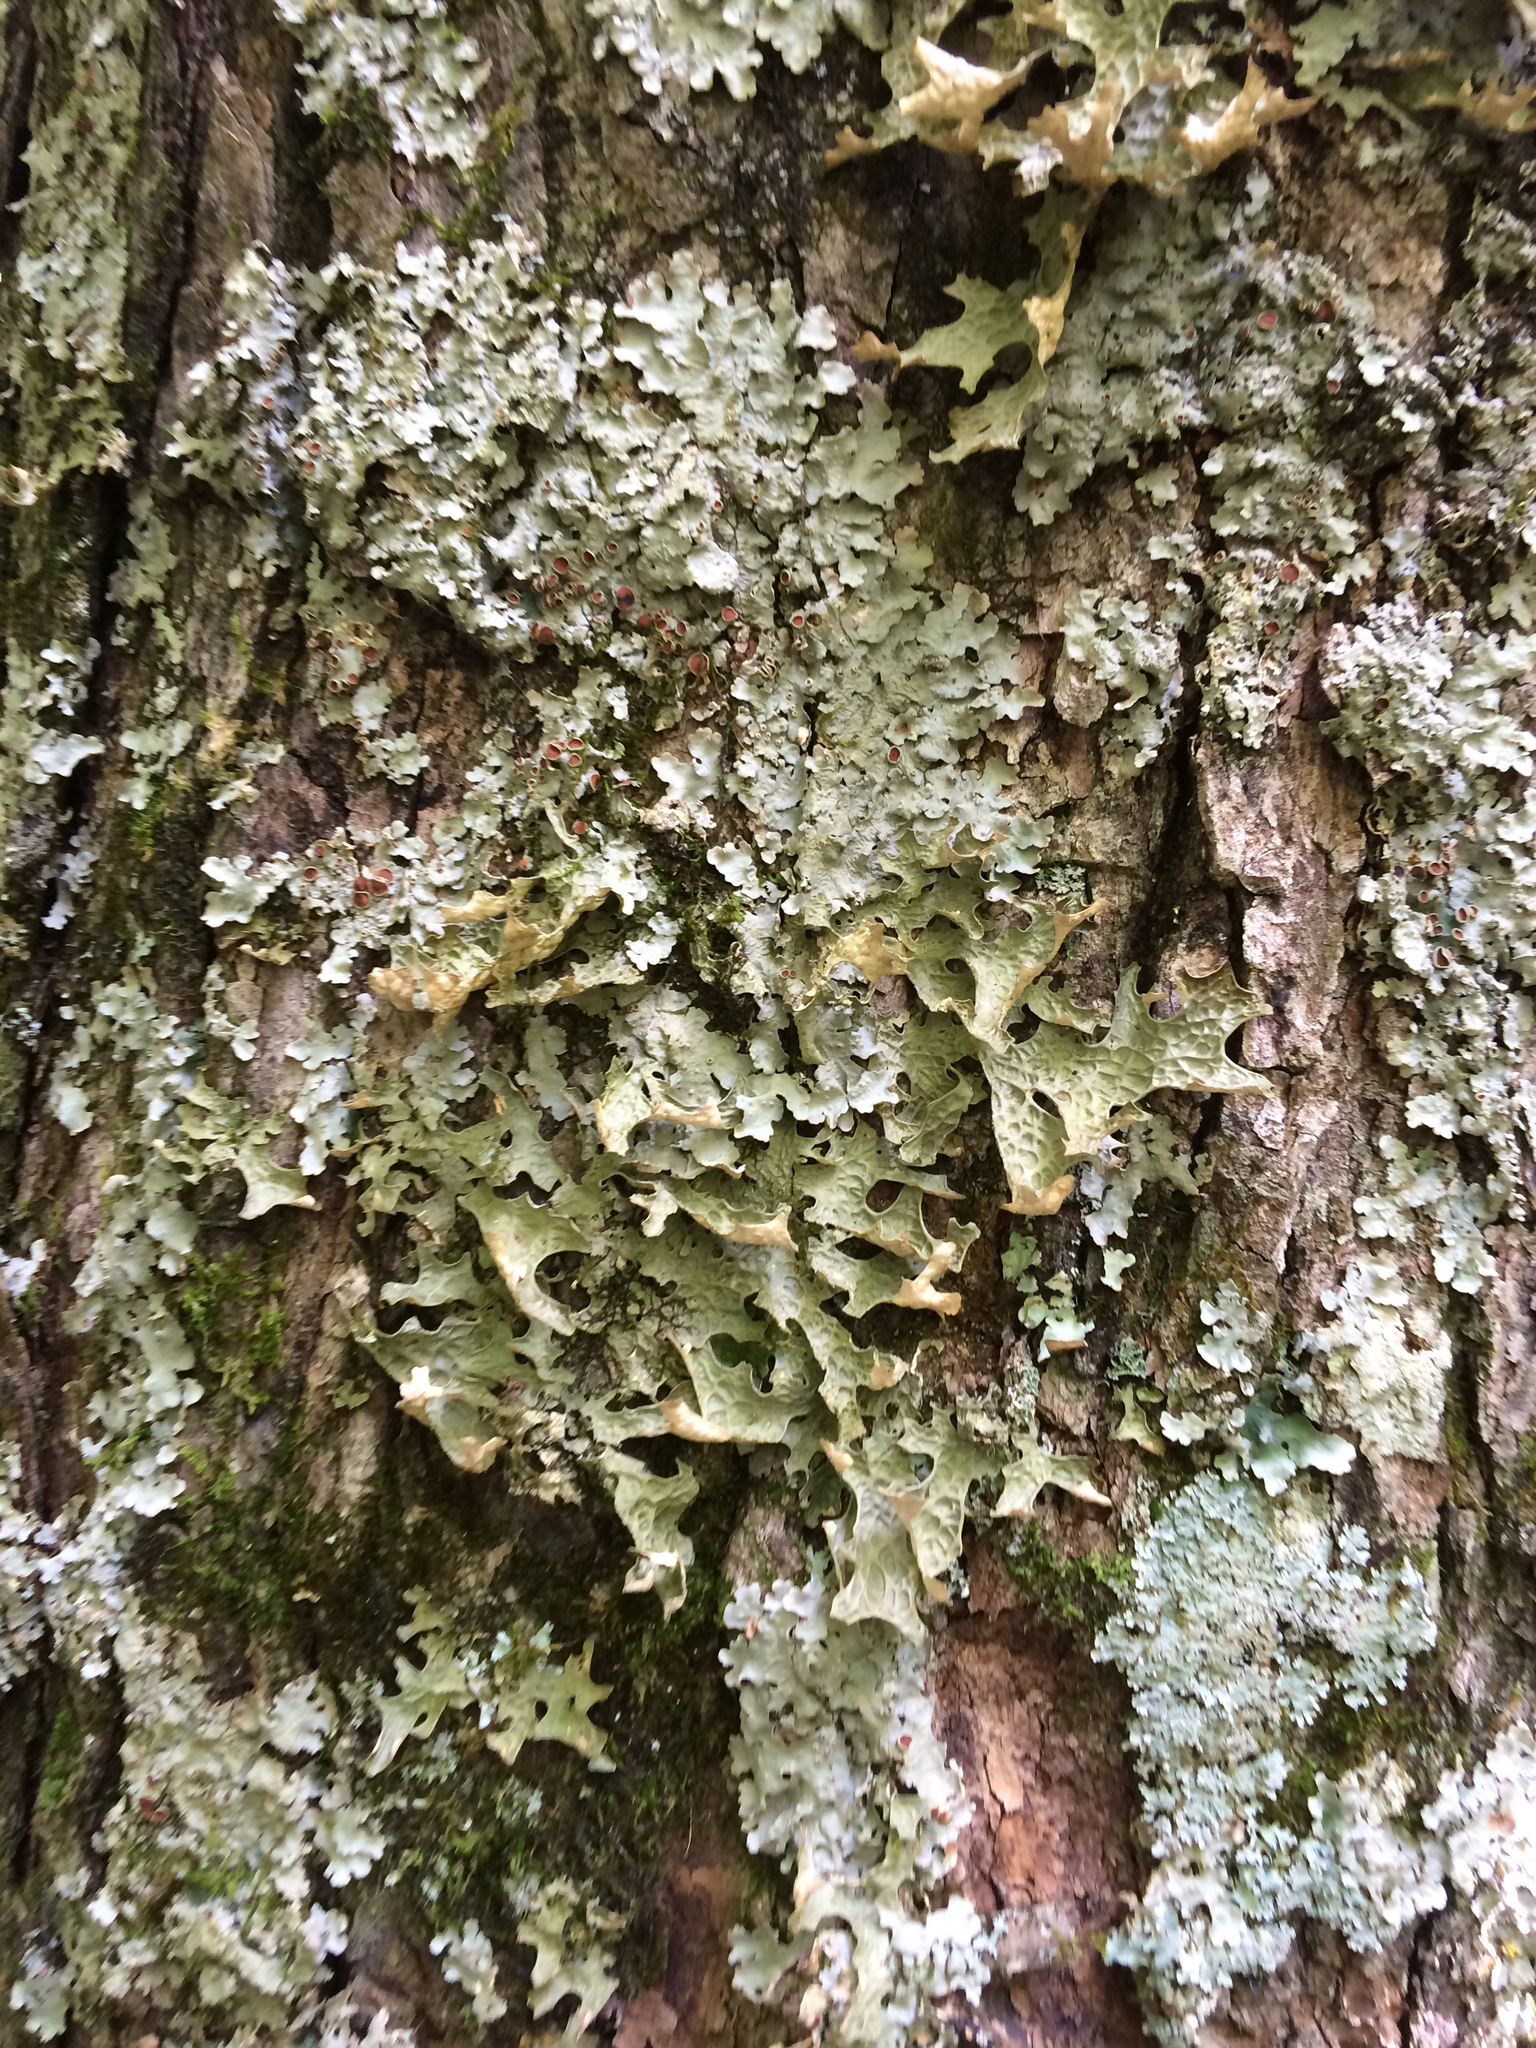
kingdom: Fungi
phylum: Ascomycota
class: Lecanoromycetes
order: Peltigerales
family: Lobariaceae
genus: Lobaria
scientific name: Lobaria pulmonaria
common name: Lungwort
